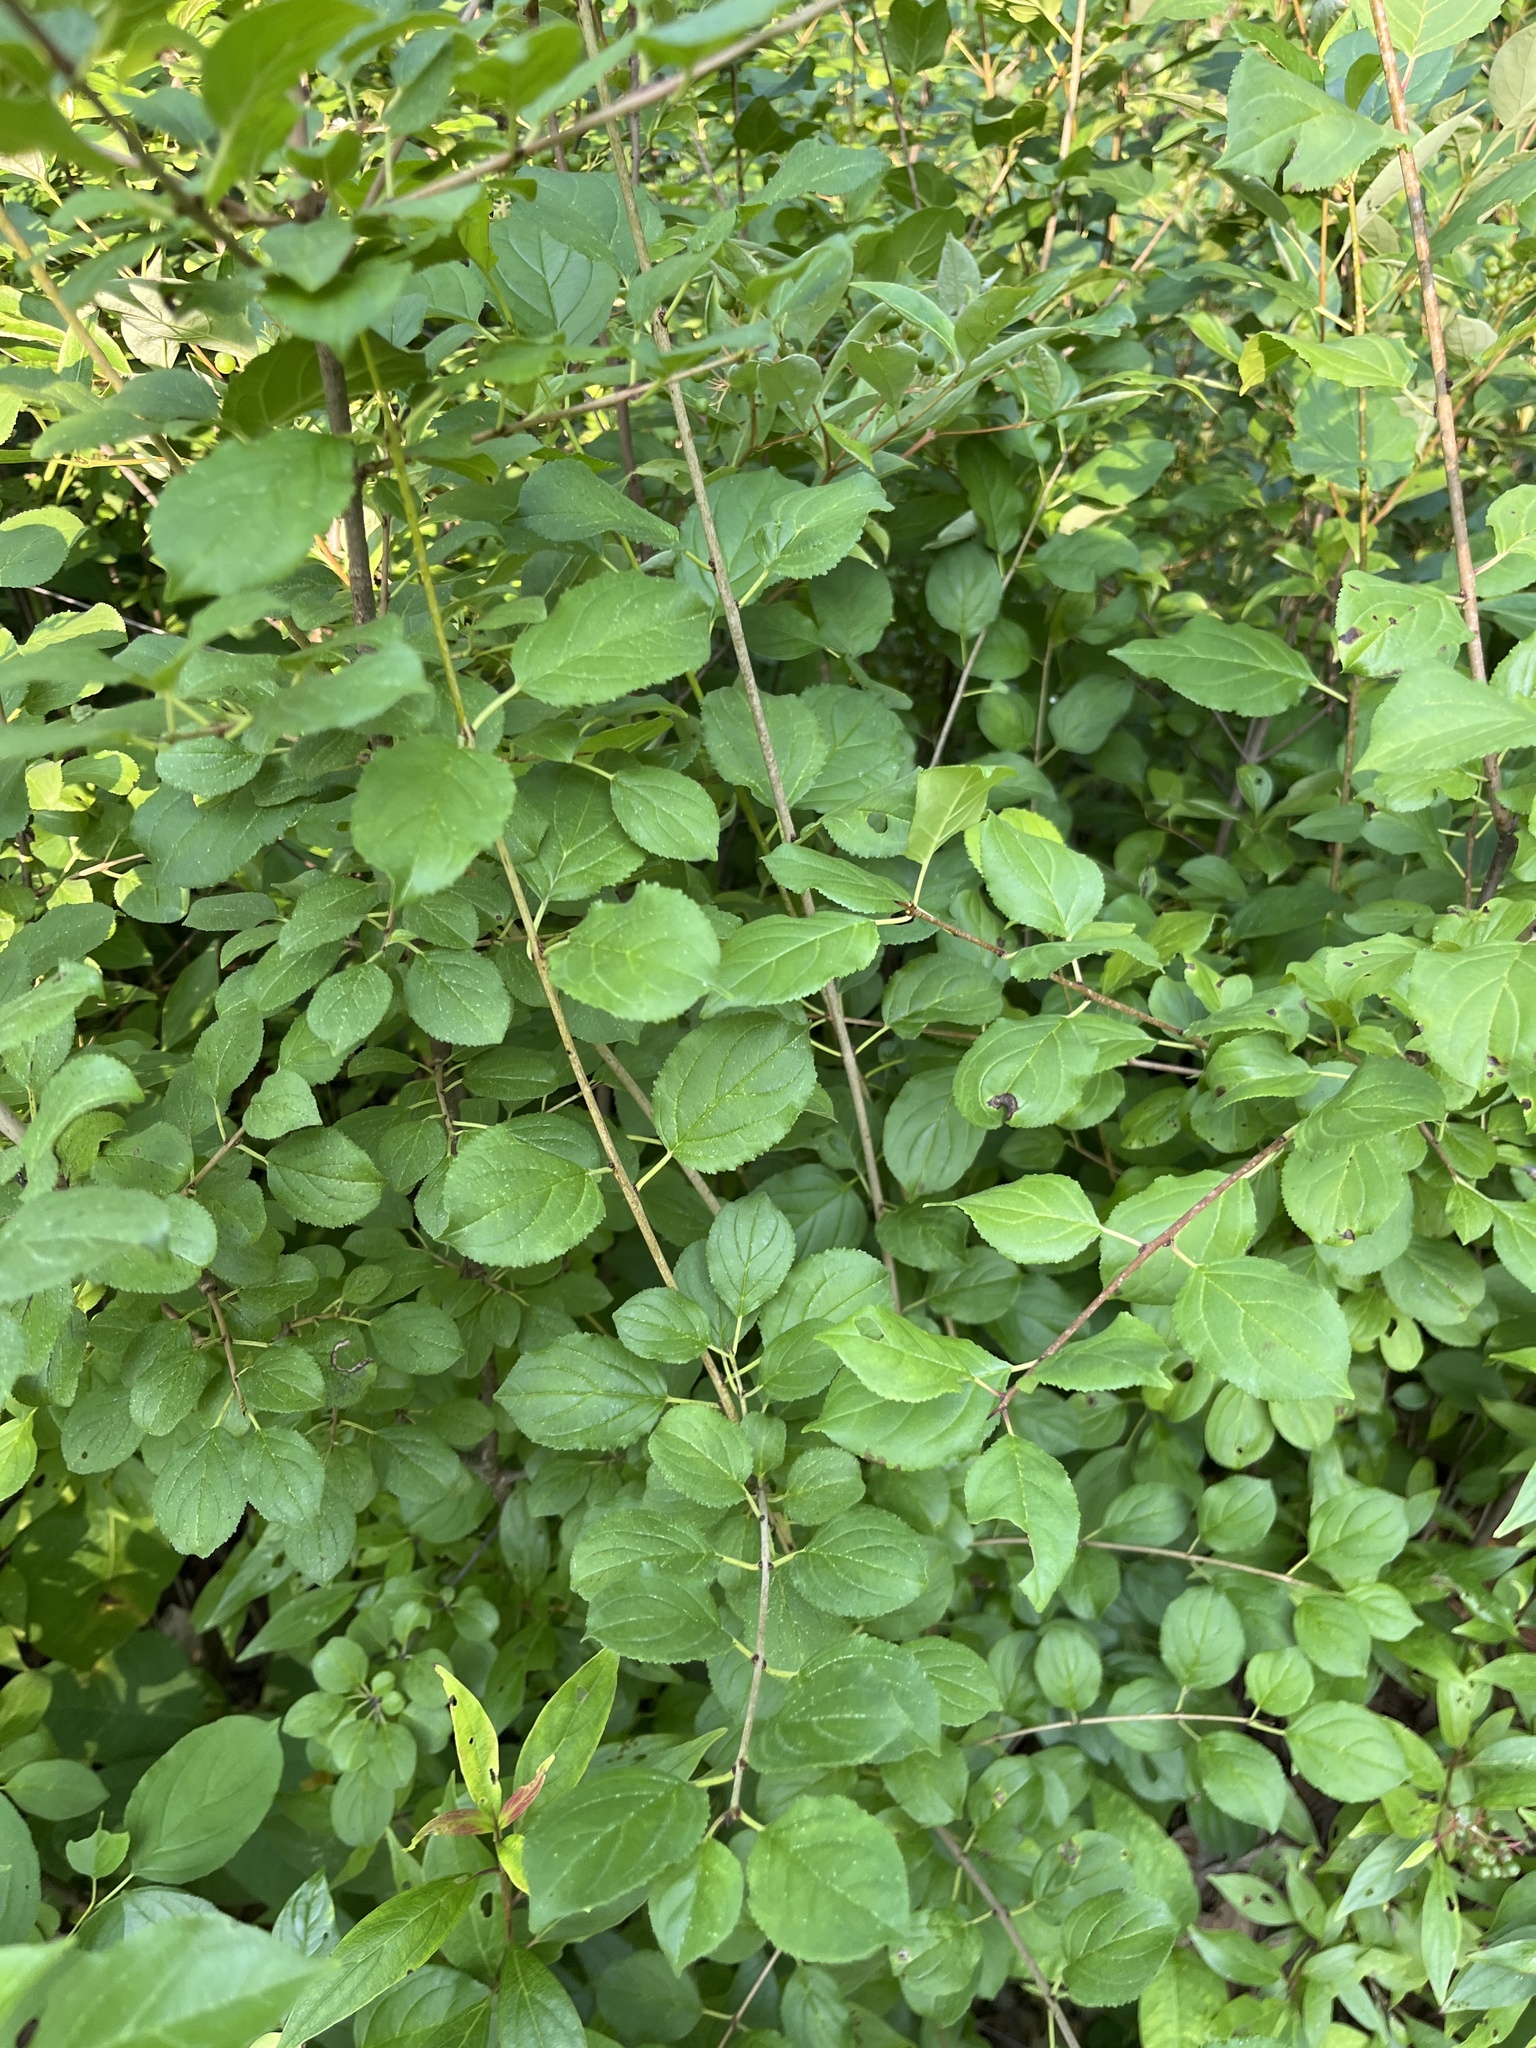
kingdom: Plantae
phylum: Tracheophyta
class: Magnoliopsida
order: Rosales
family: Rhamnaceae
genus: Rhamnus
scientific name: Rhamnus cathartica
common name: Common buckthorn
